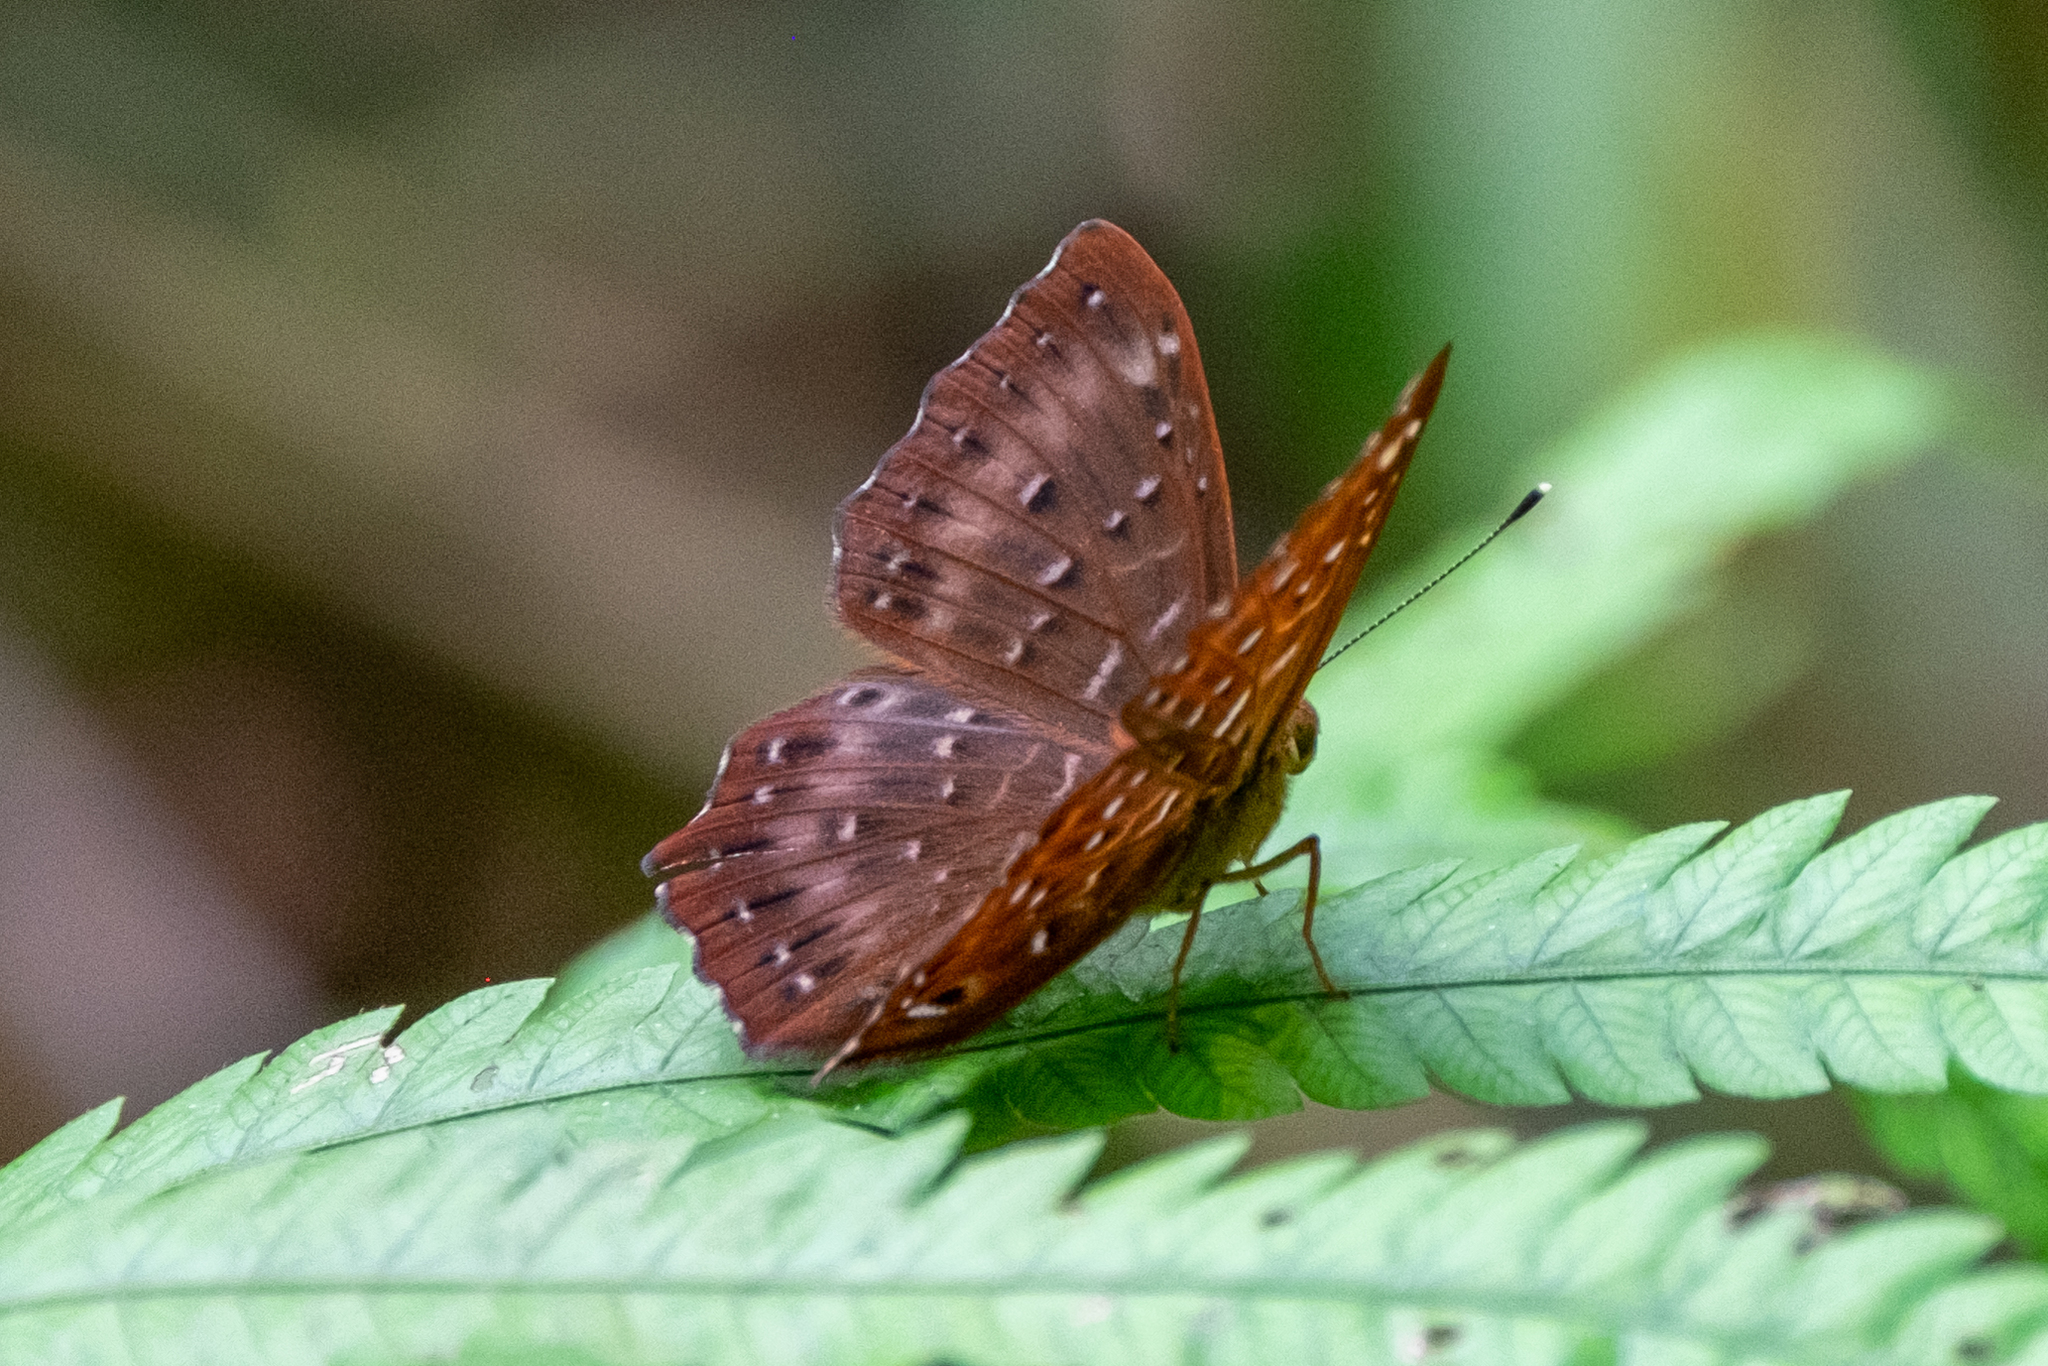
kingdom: Animalia
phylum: Arthropoda
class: Insecta
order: Lepidoptera
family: Riodinidae
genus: Zemeros
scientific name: Zemeros flegyas
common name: Punchinello
